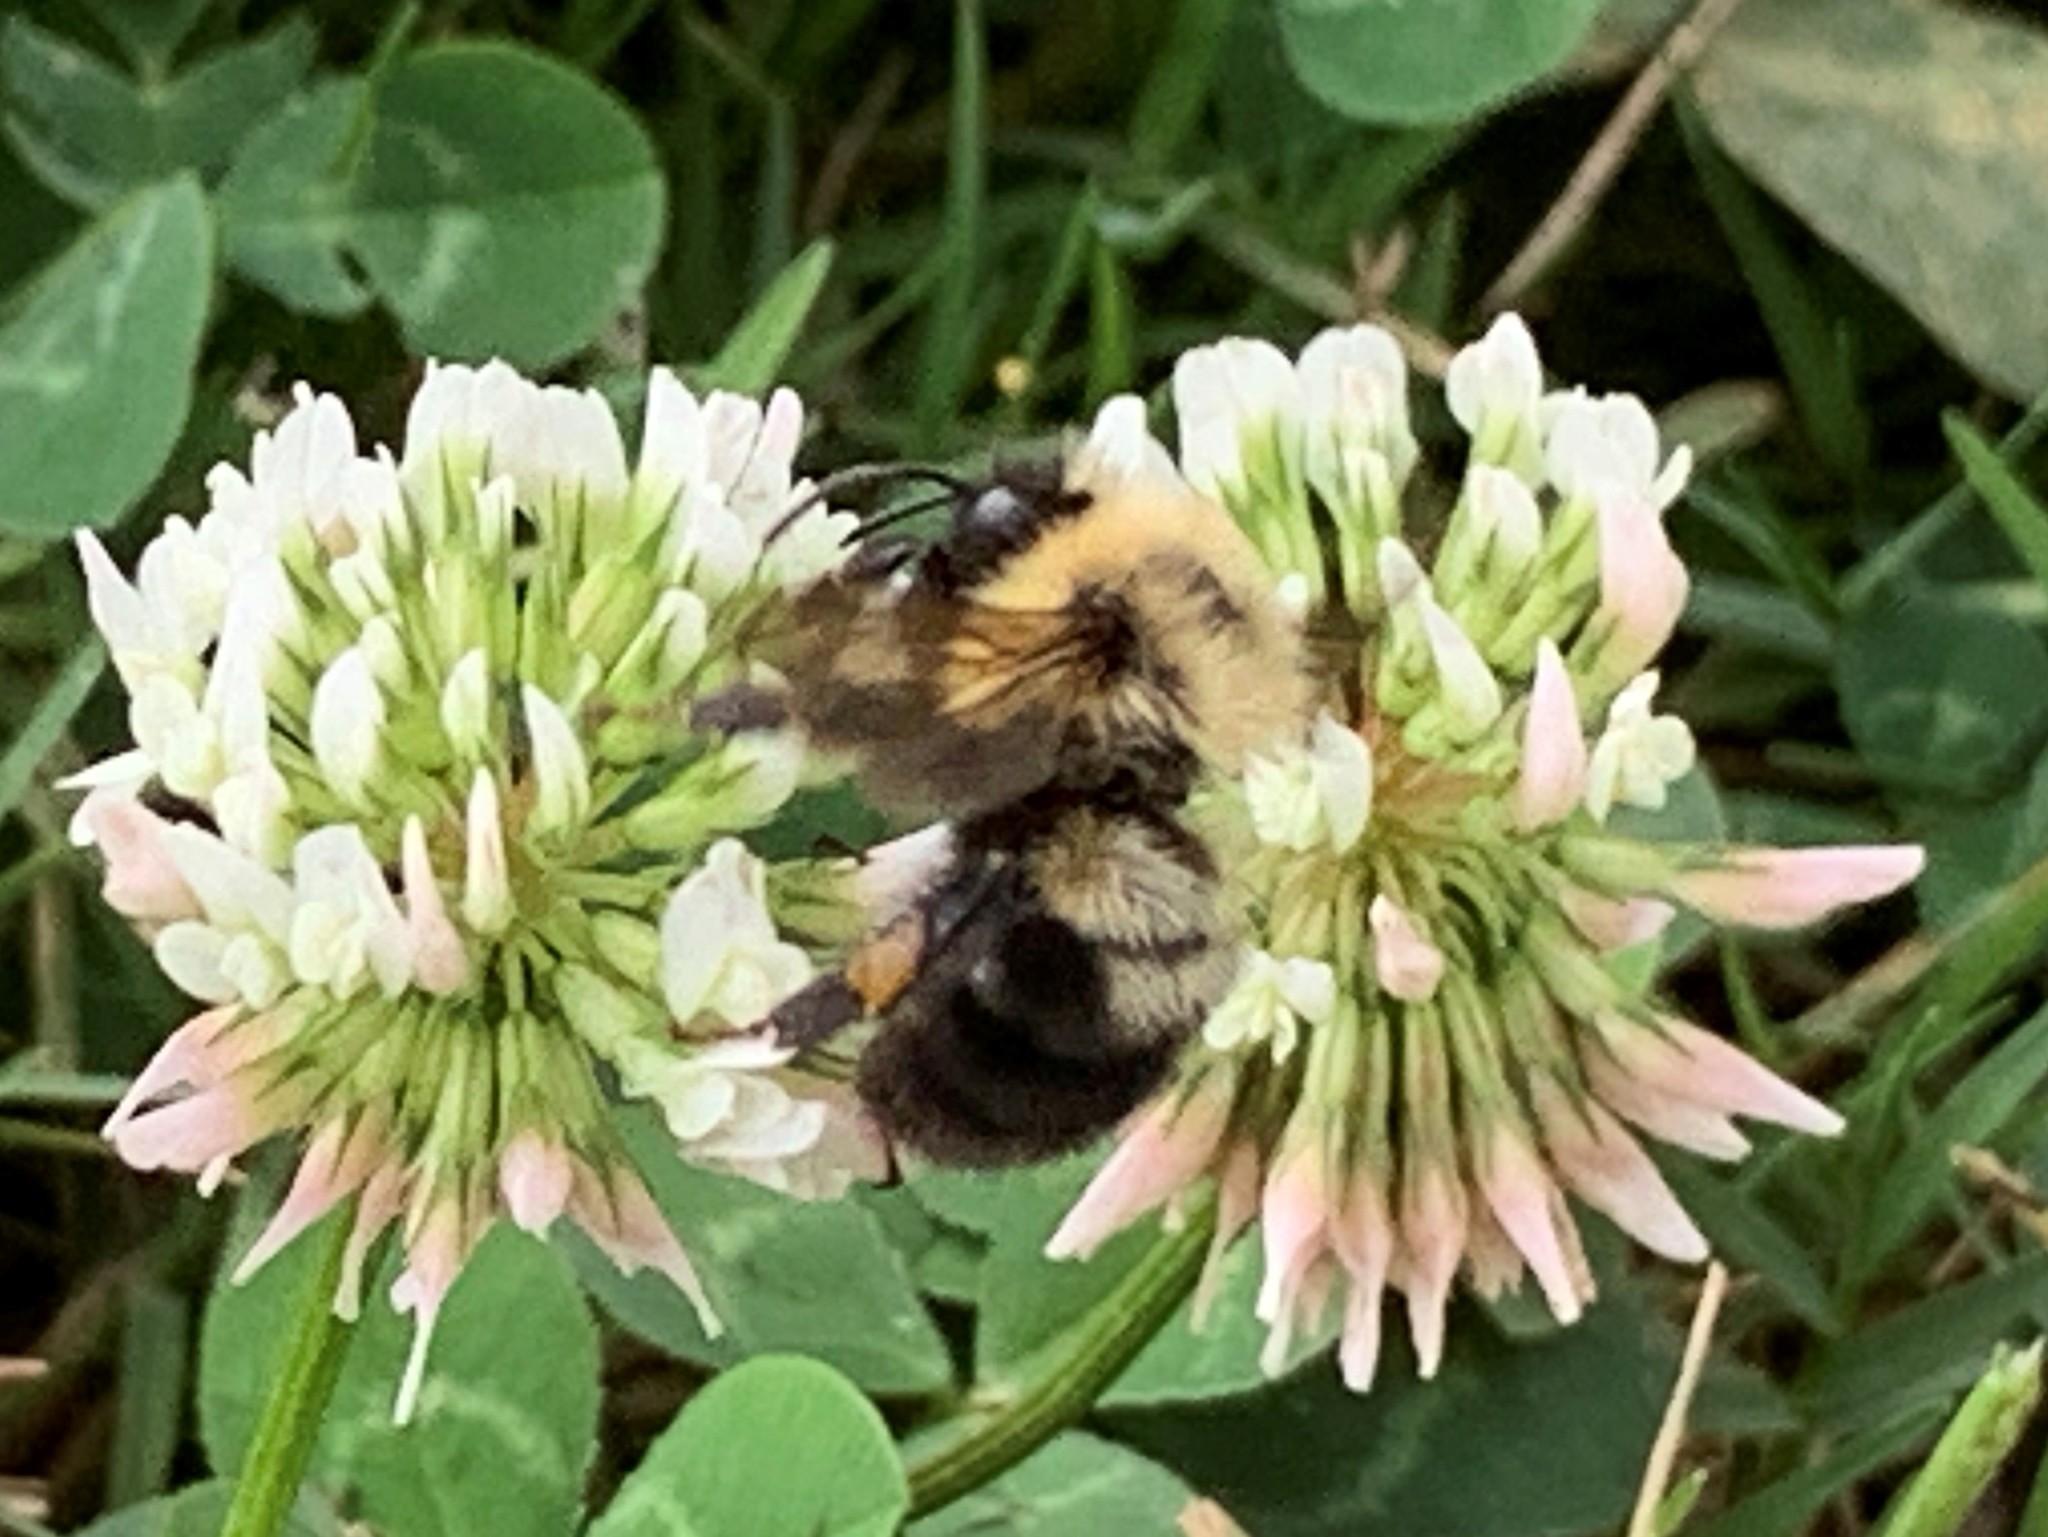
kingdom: Animalia
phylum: Arthropoda
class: Insecta
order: Hymenoptera
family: Apidae
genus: Bombus
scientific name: Bombus bimaculatus
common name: Two-spotted bumble bee
